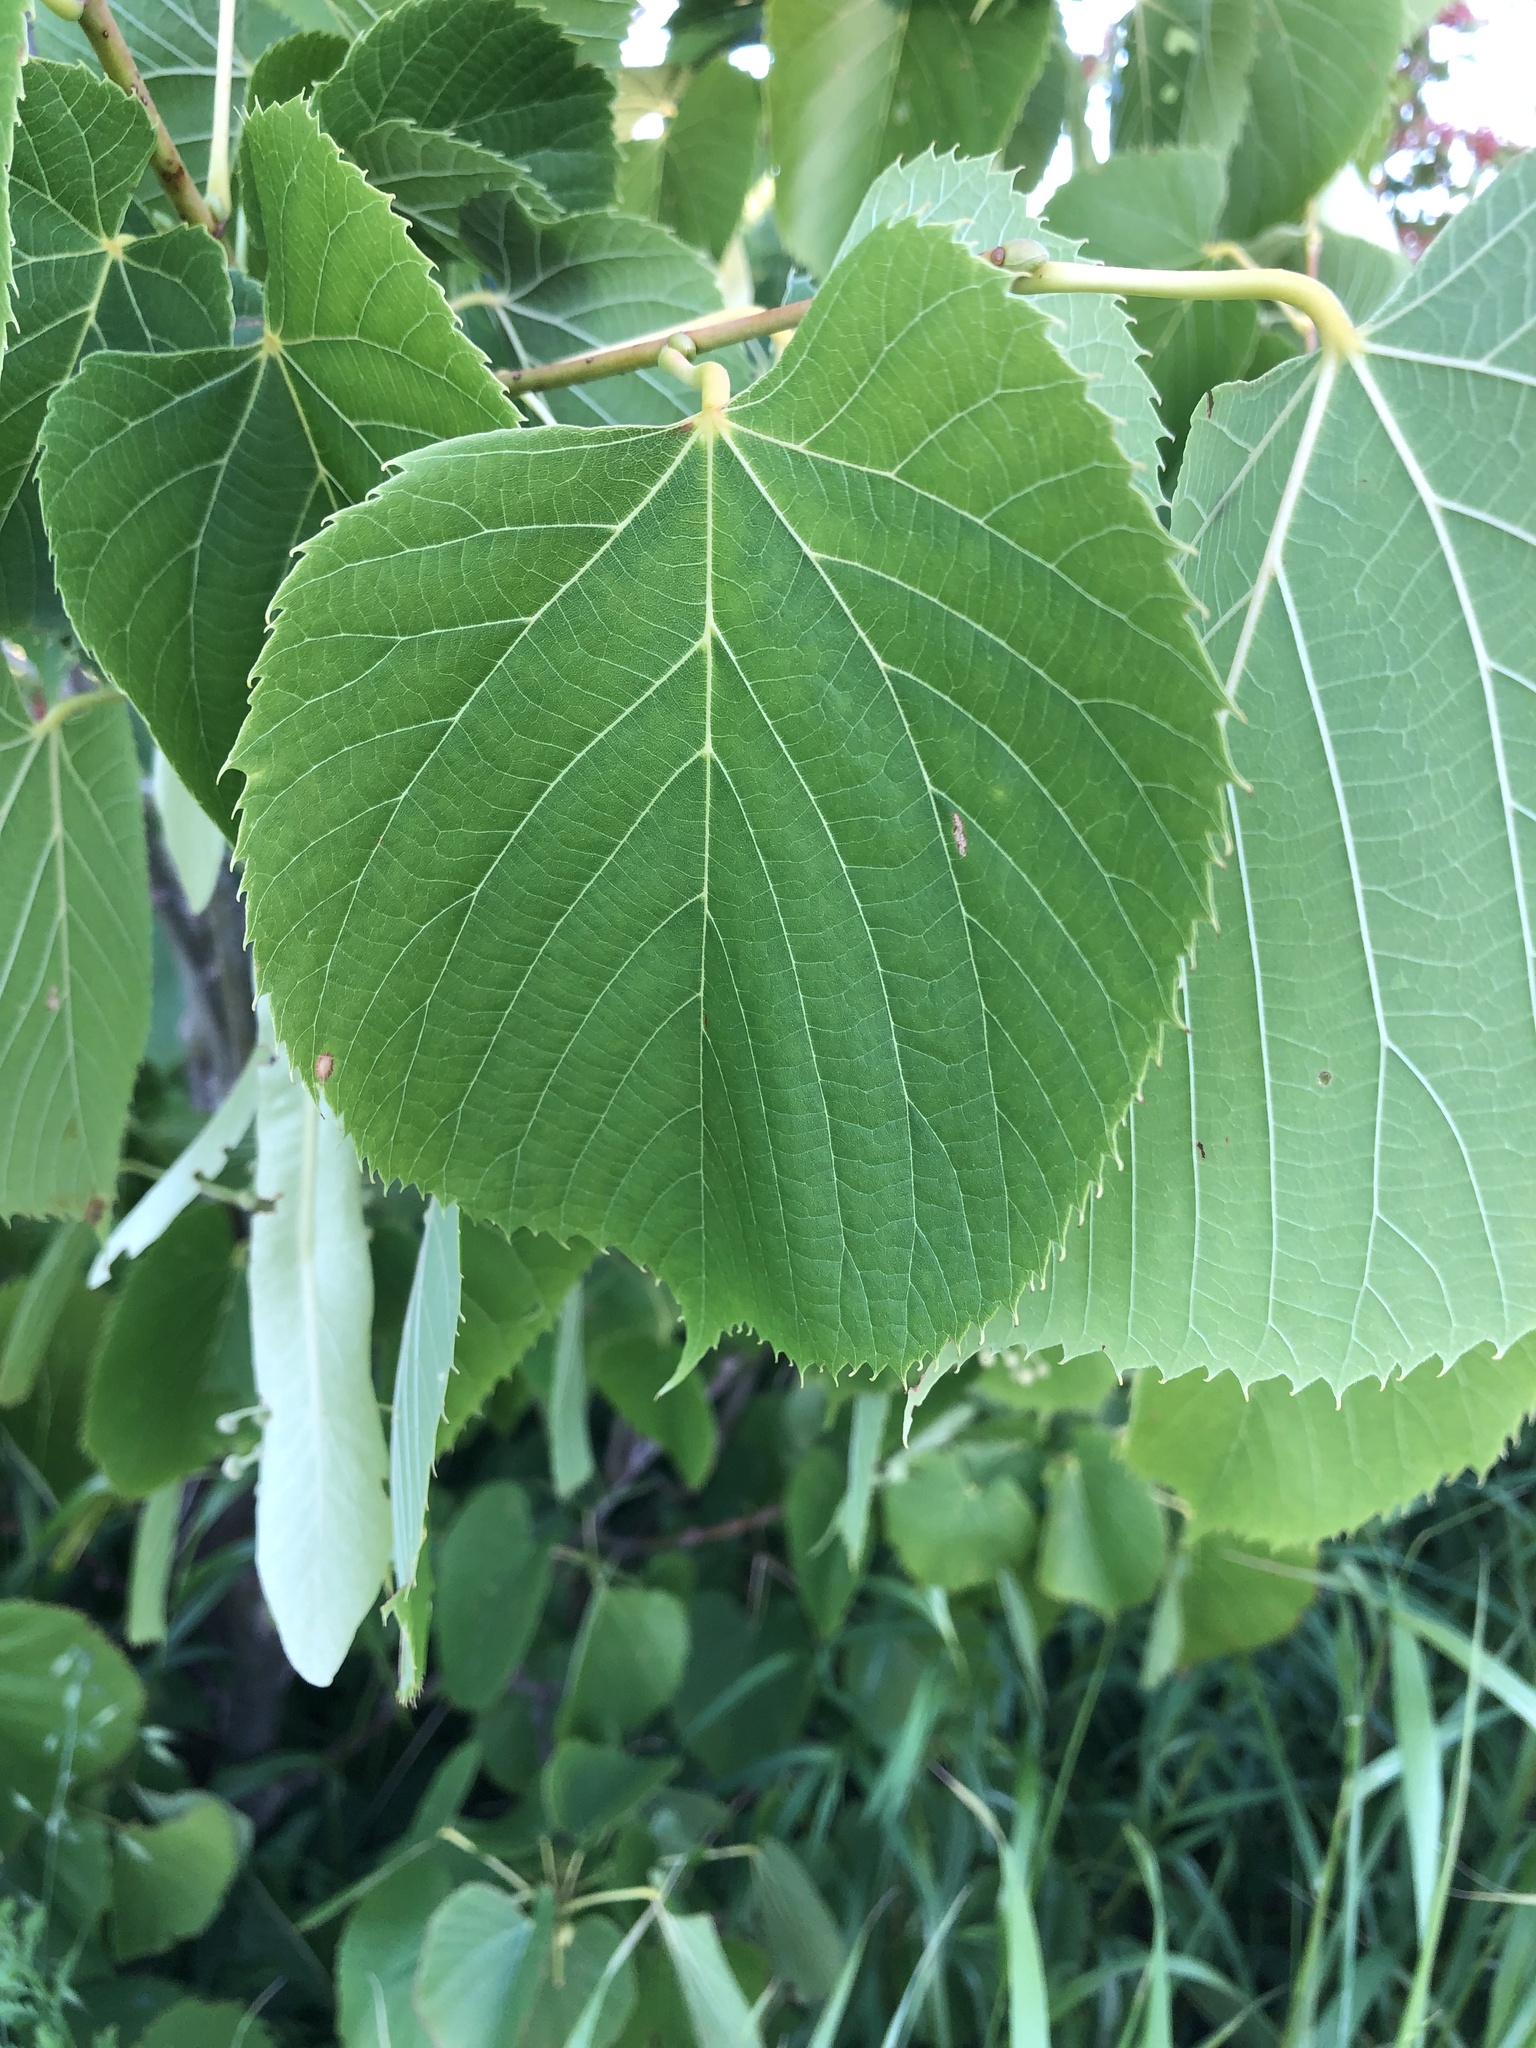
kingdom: Plantae
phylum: Tracheophyta
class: Magnoliopsida
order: Malvales
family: Malvaceae
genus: Tilia
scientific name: Tilia americana
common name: Basswood
